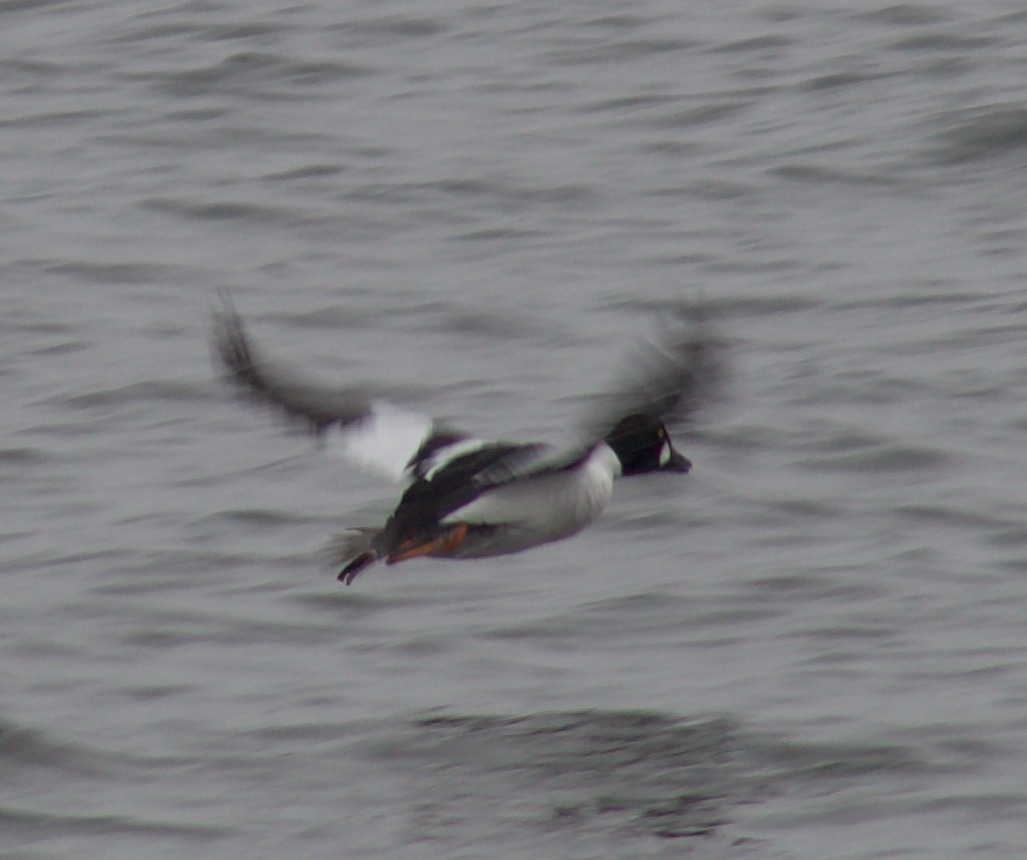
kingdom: Animalia
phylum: Chordata
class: Aves
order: Anseriformes
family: Anatidae
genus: Bucephala
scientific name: Bucephala clangula
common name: Common goldeneye
